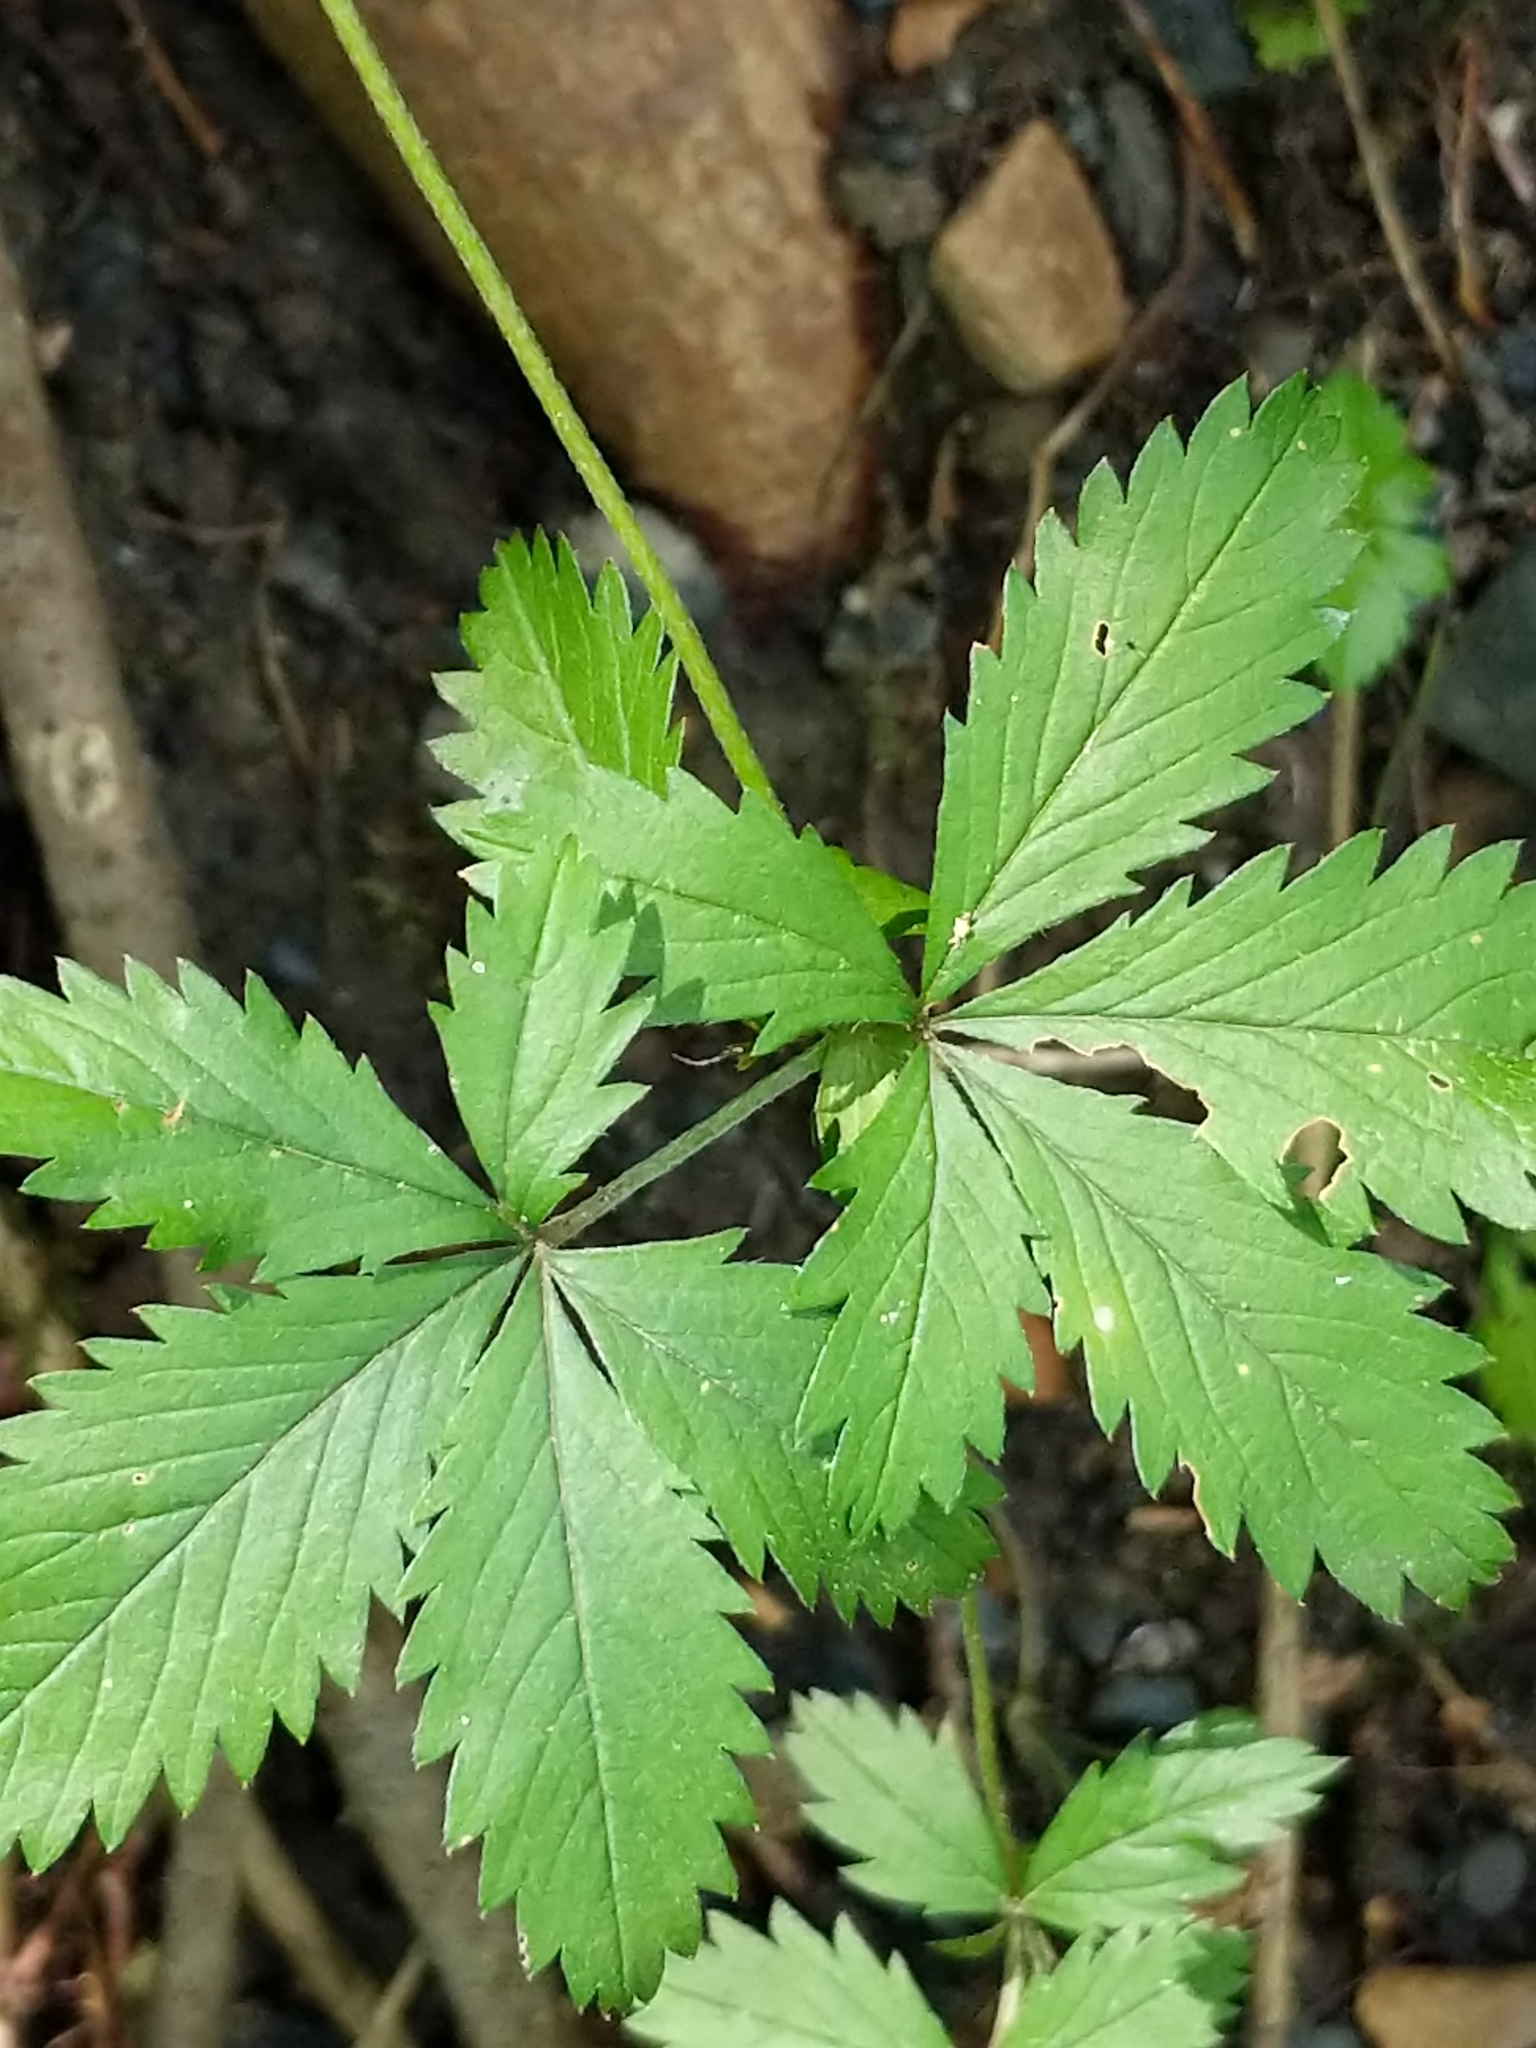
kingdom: Plantae
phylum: Tracheophyta
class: Magnoliopsida
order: Rosales
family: Rosaceae
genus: Potentilla
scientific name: Potentilla simplex
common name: Old field cinquefoil
